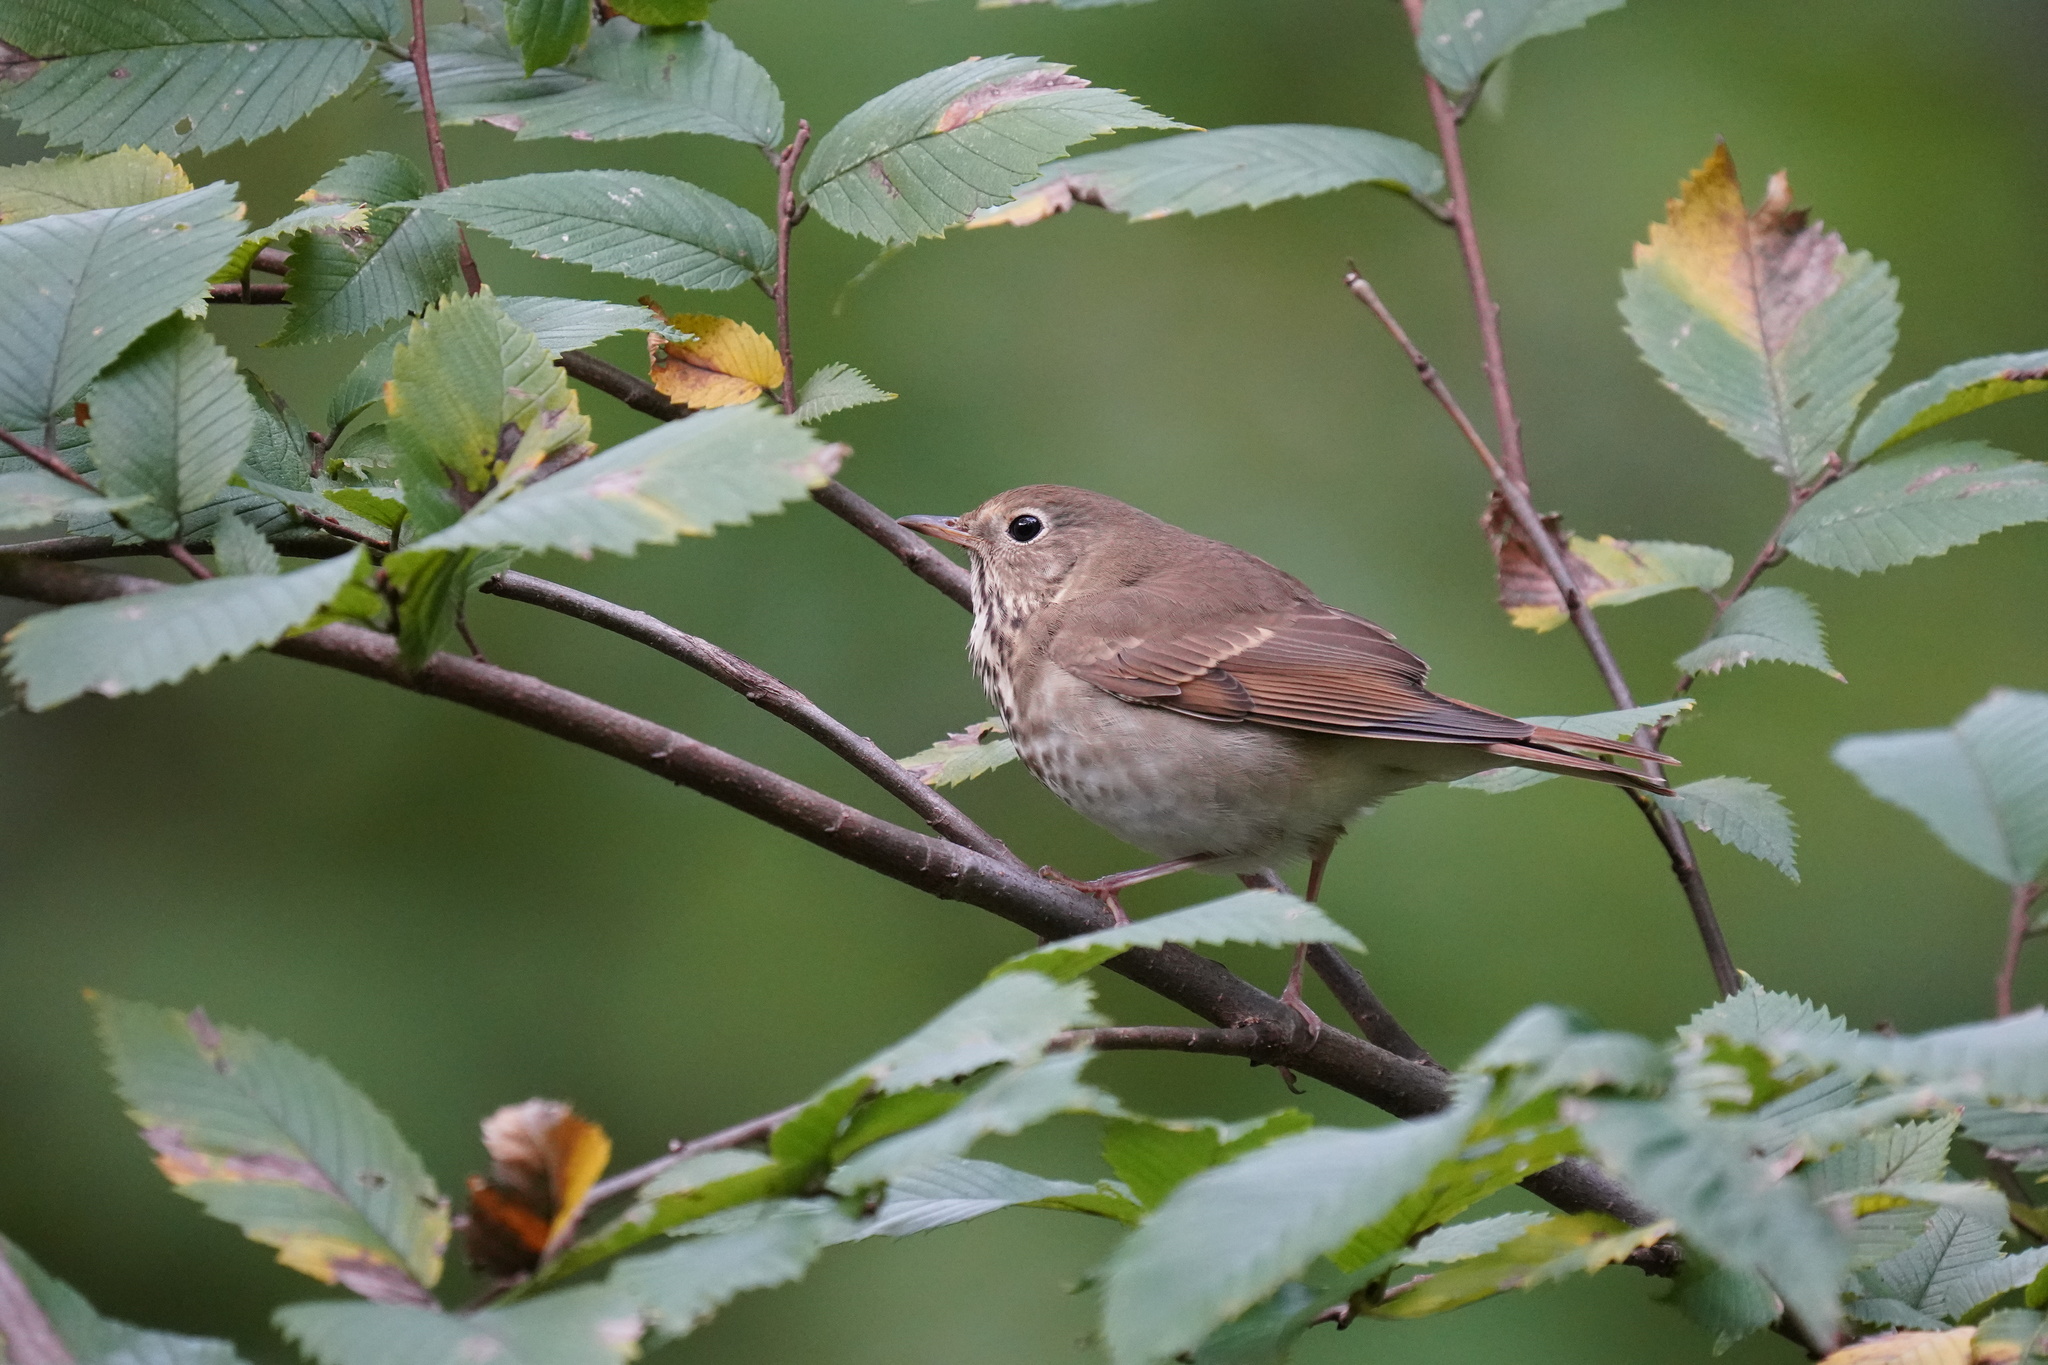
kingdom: Animalia
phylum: Chordata
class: Aves
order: Passeriformes
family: Turdidae
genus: Catharus
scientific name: Catharus guttatus
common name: Hermit thrush
